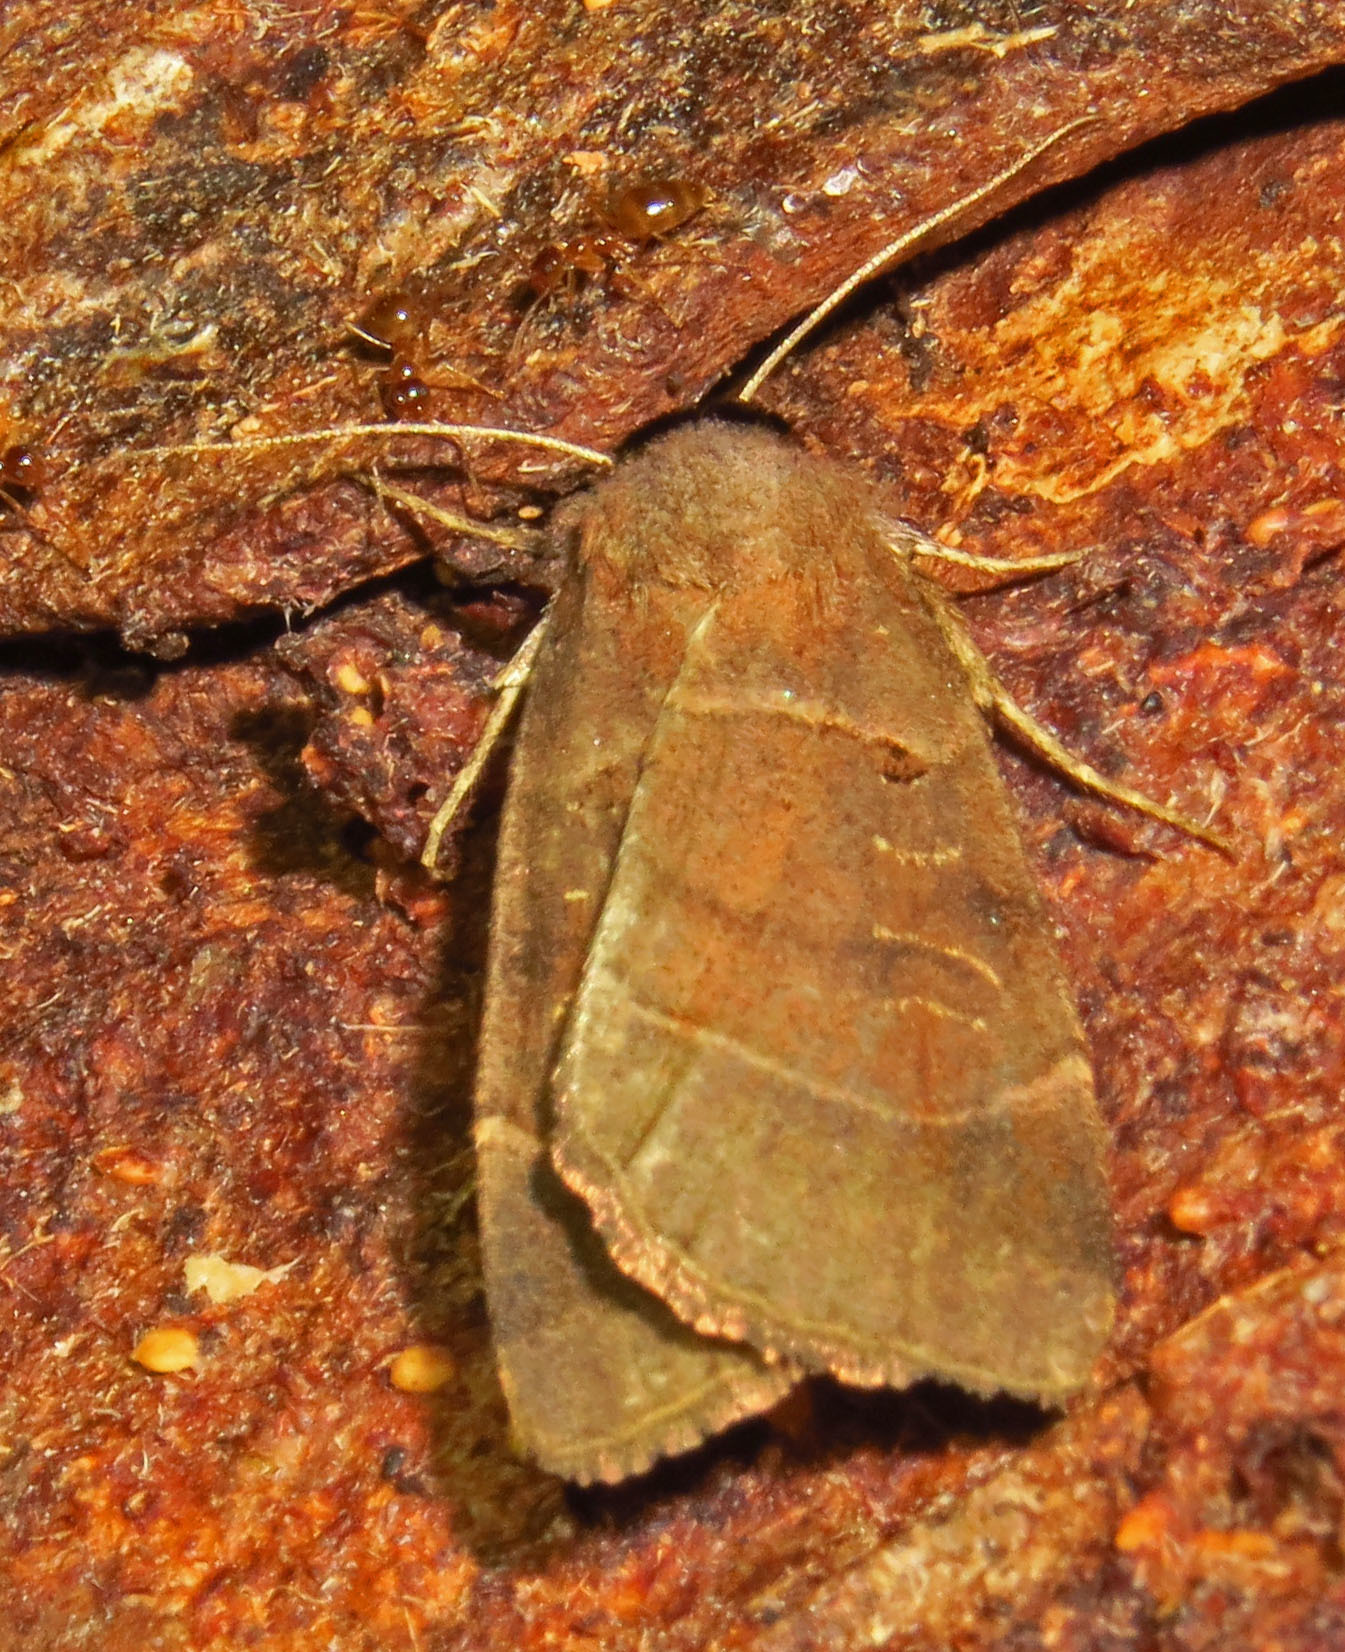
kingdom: Animalia
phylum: Arthropoda
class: Insecta
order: Lepidoptera
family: Noctuidae
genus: Agnorisma
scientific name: Agnorisma badinodis
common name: Pale-banded dart
